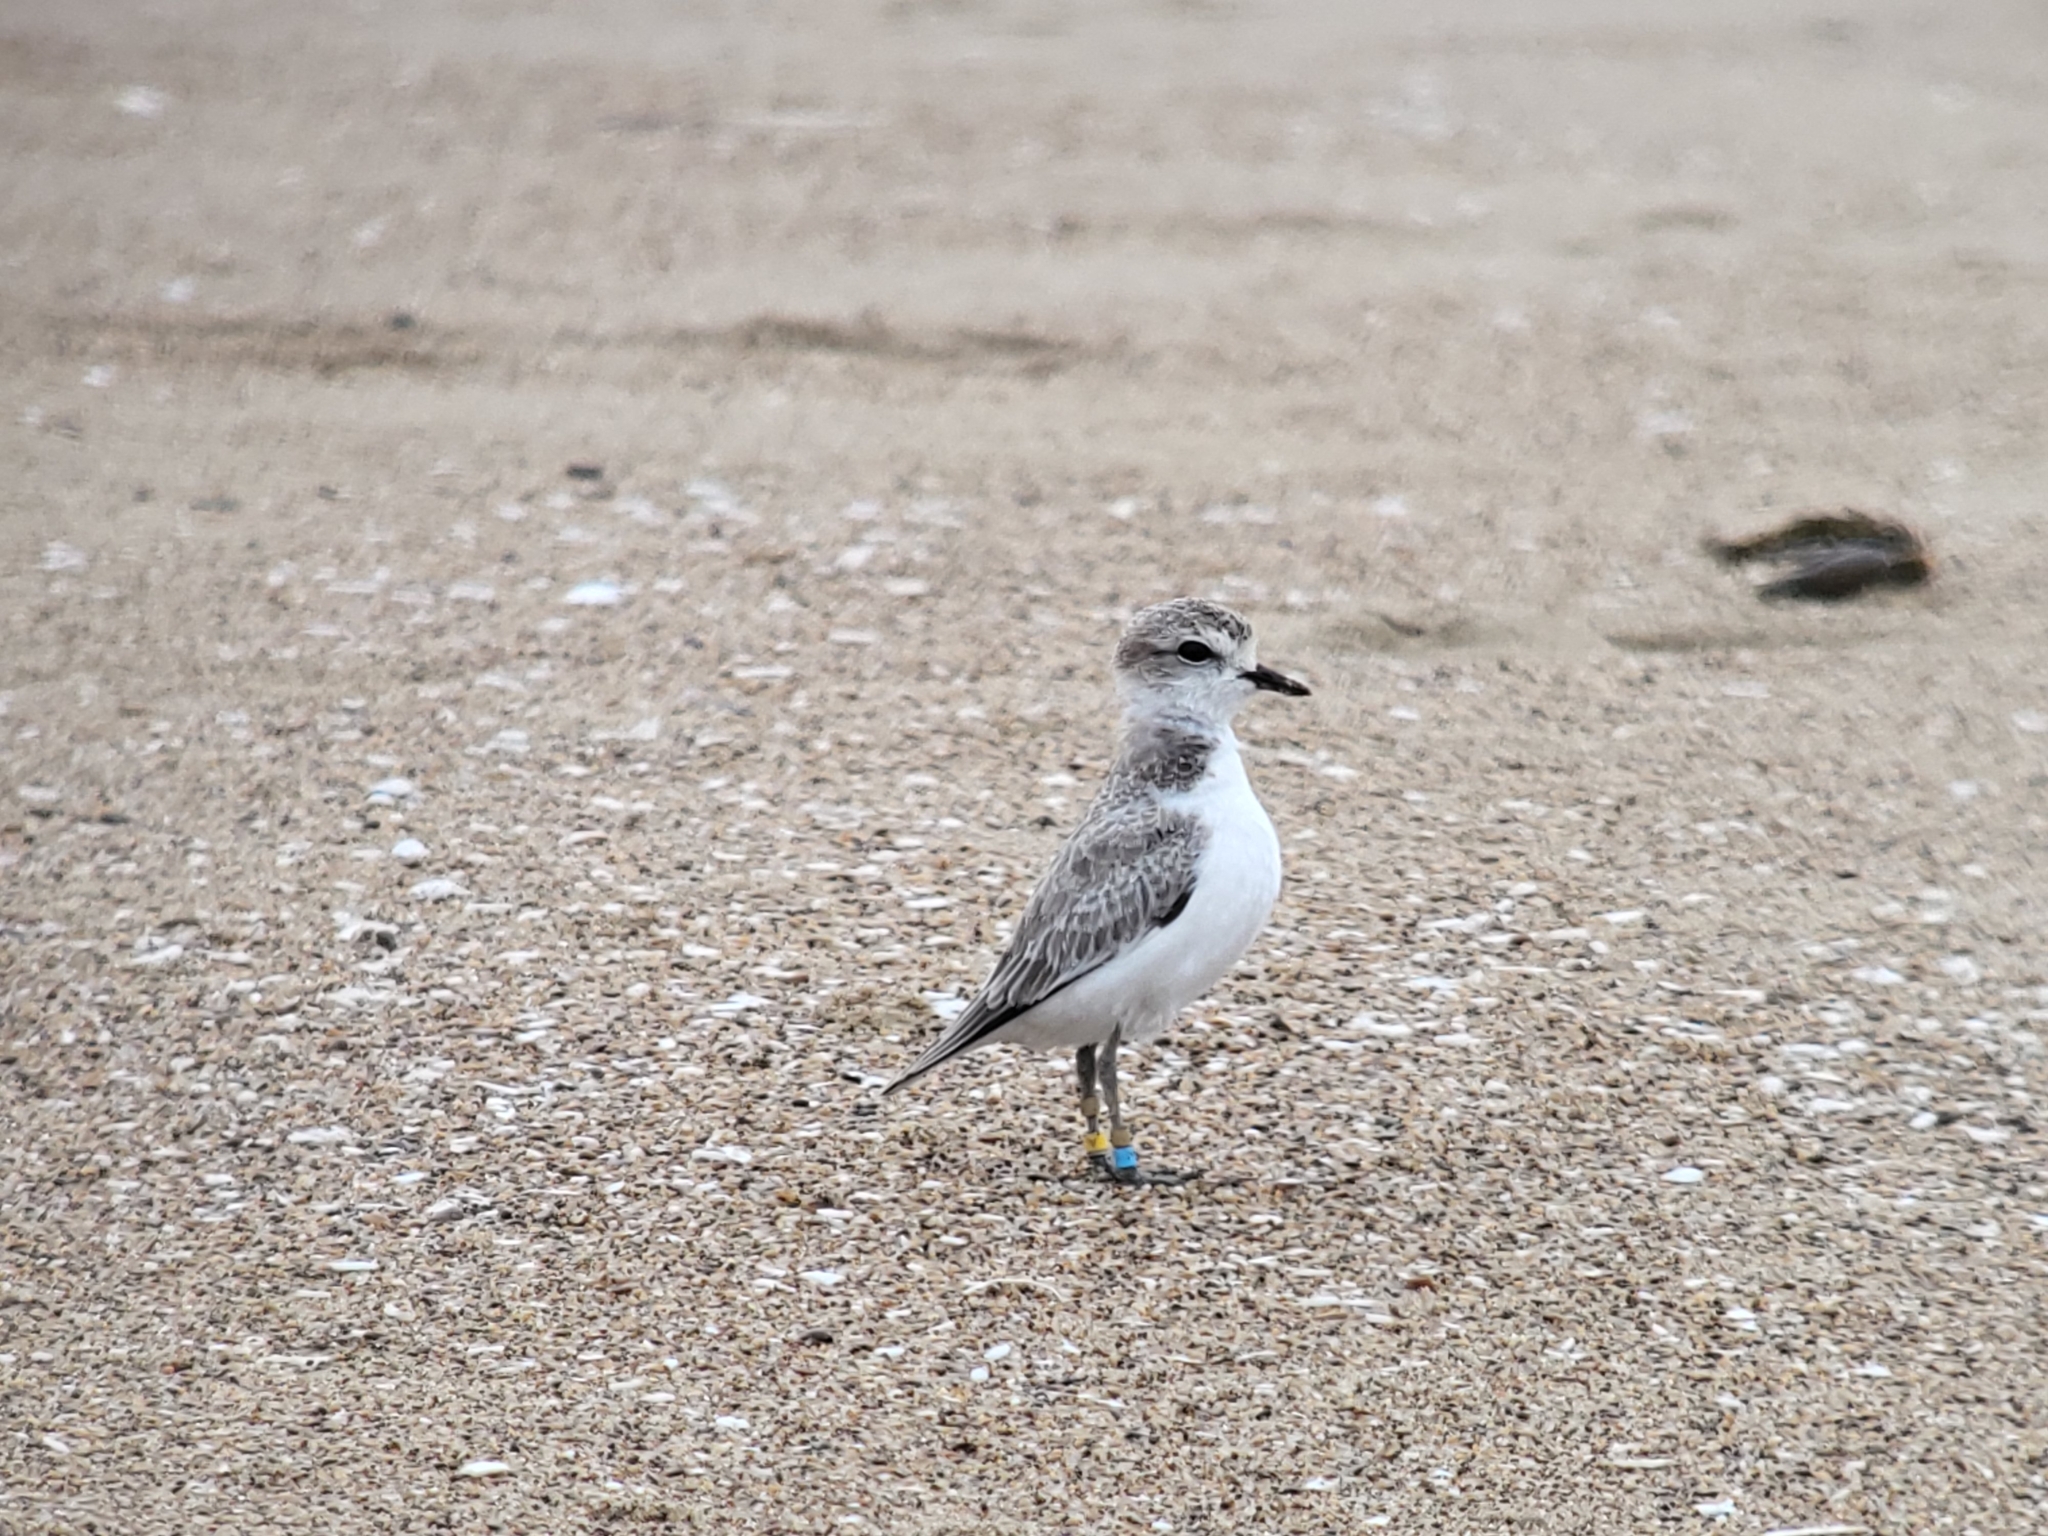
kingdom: Animalia
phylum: Chordata
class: Aves
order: Charadriiformes
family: Charadriidae
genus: Anarhynchus
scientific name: Anarhynchus
